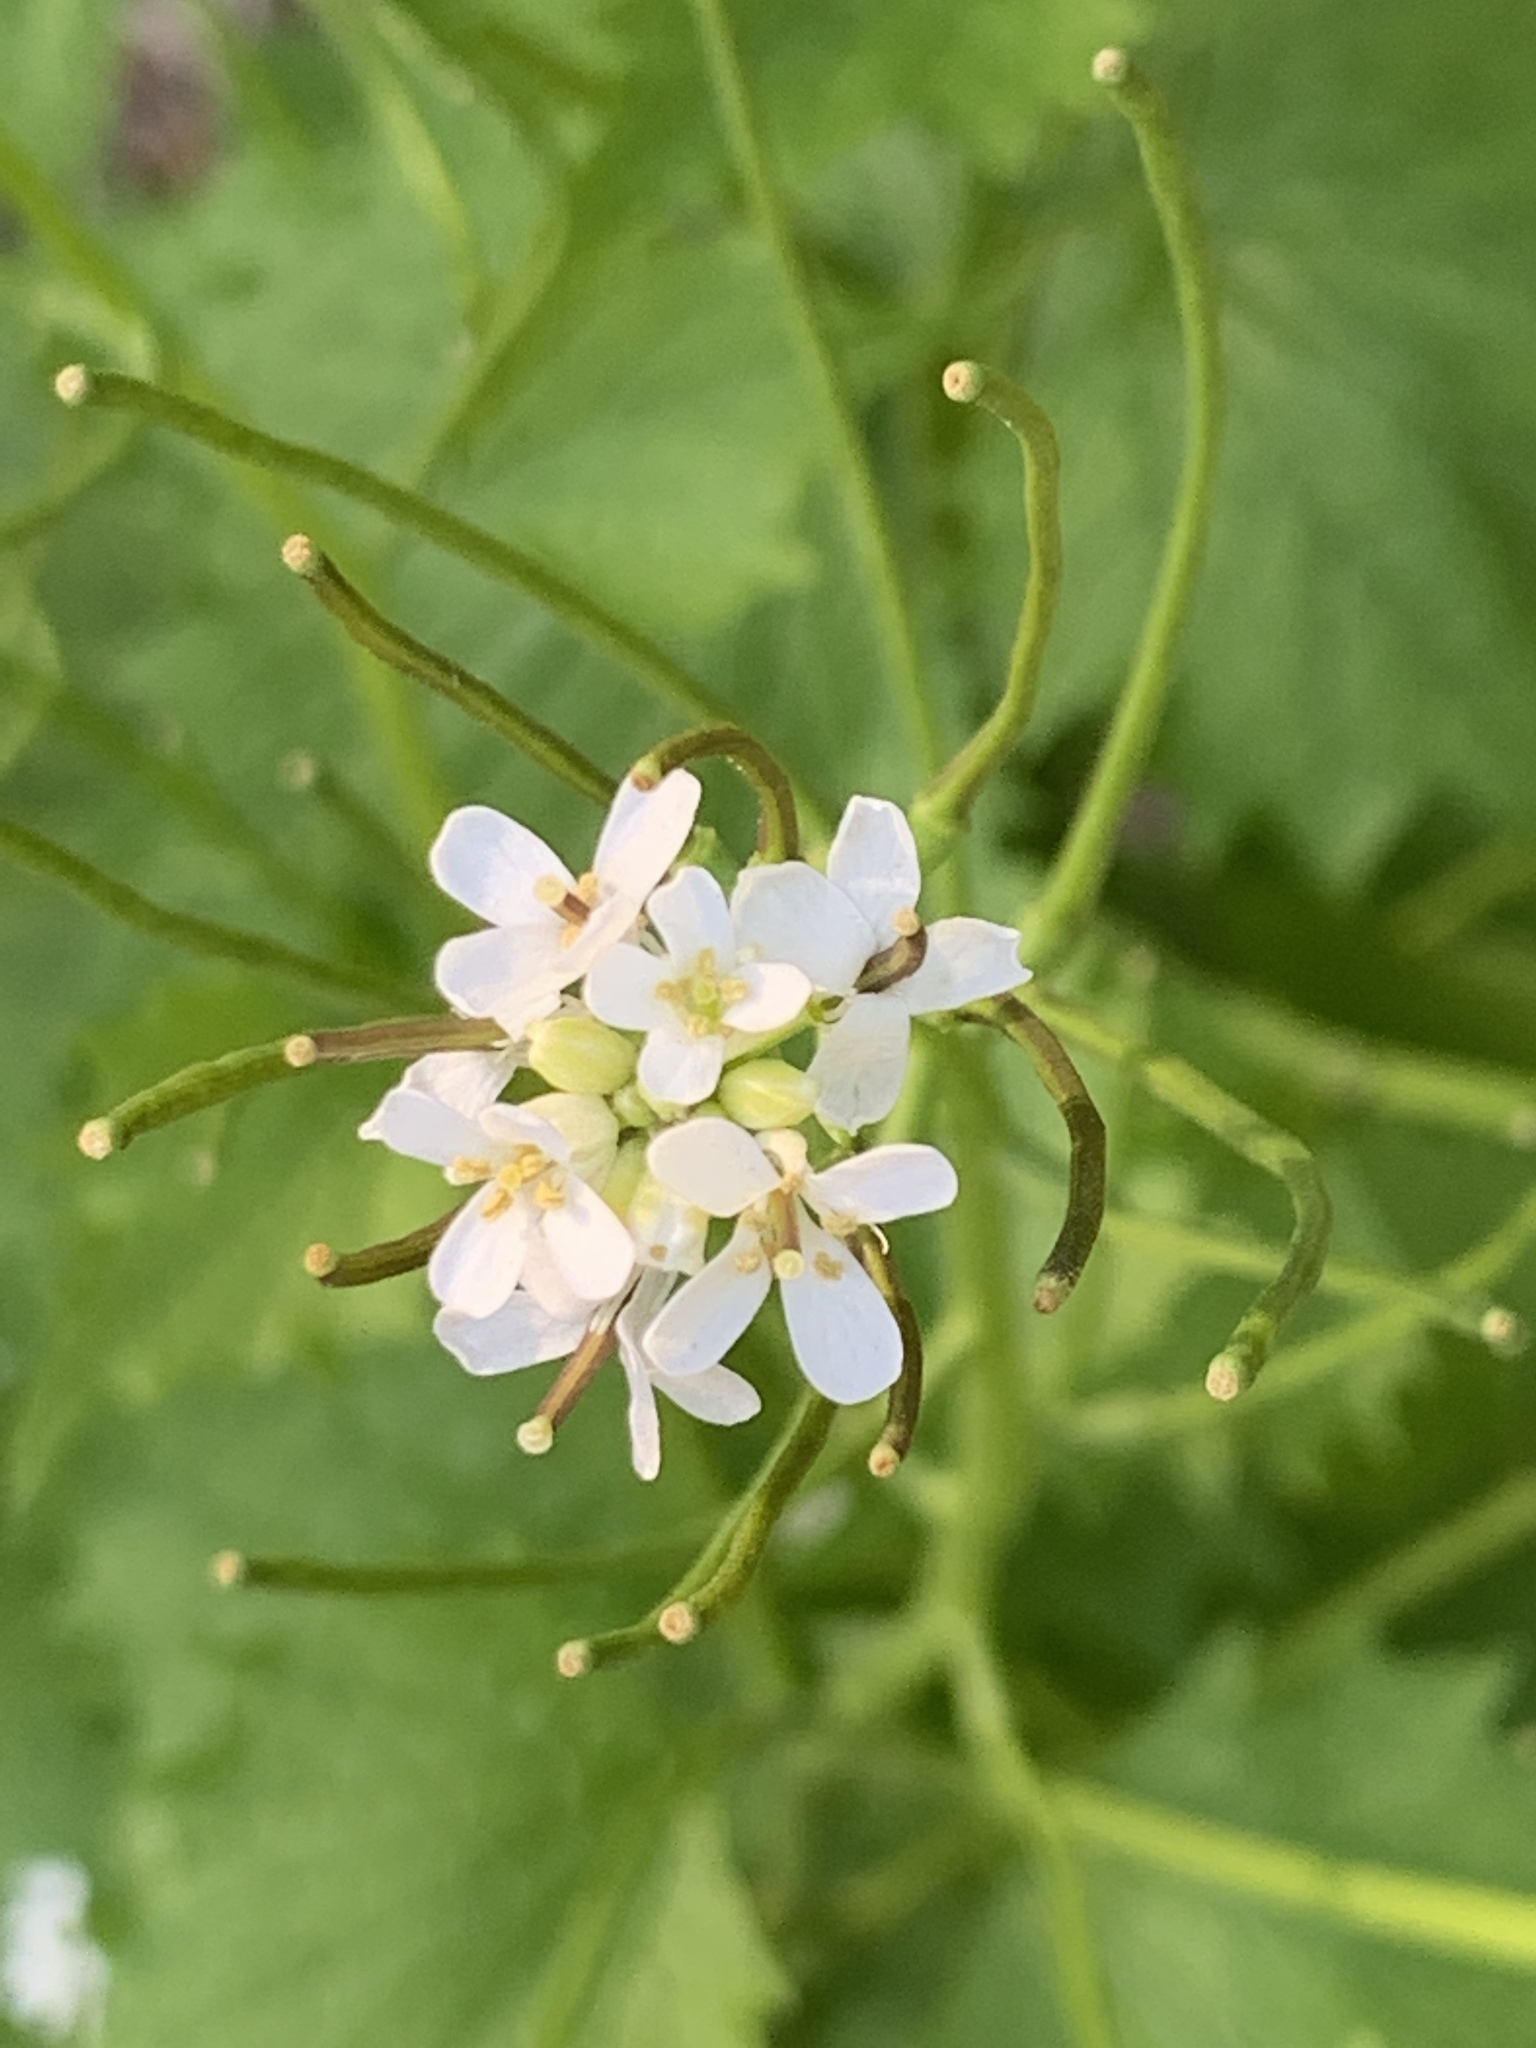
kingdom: Plantae
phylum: Tracheophyta
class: Magnoliopsida
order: Brassicales
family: Brassicaceae
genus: Alliaria
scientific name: Alliaria petiolata
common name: Garlic mustard
